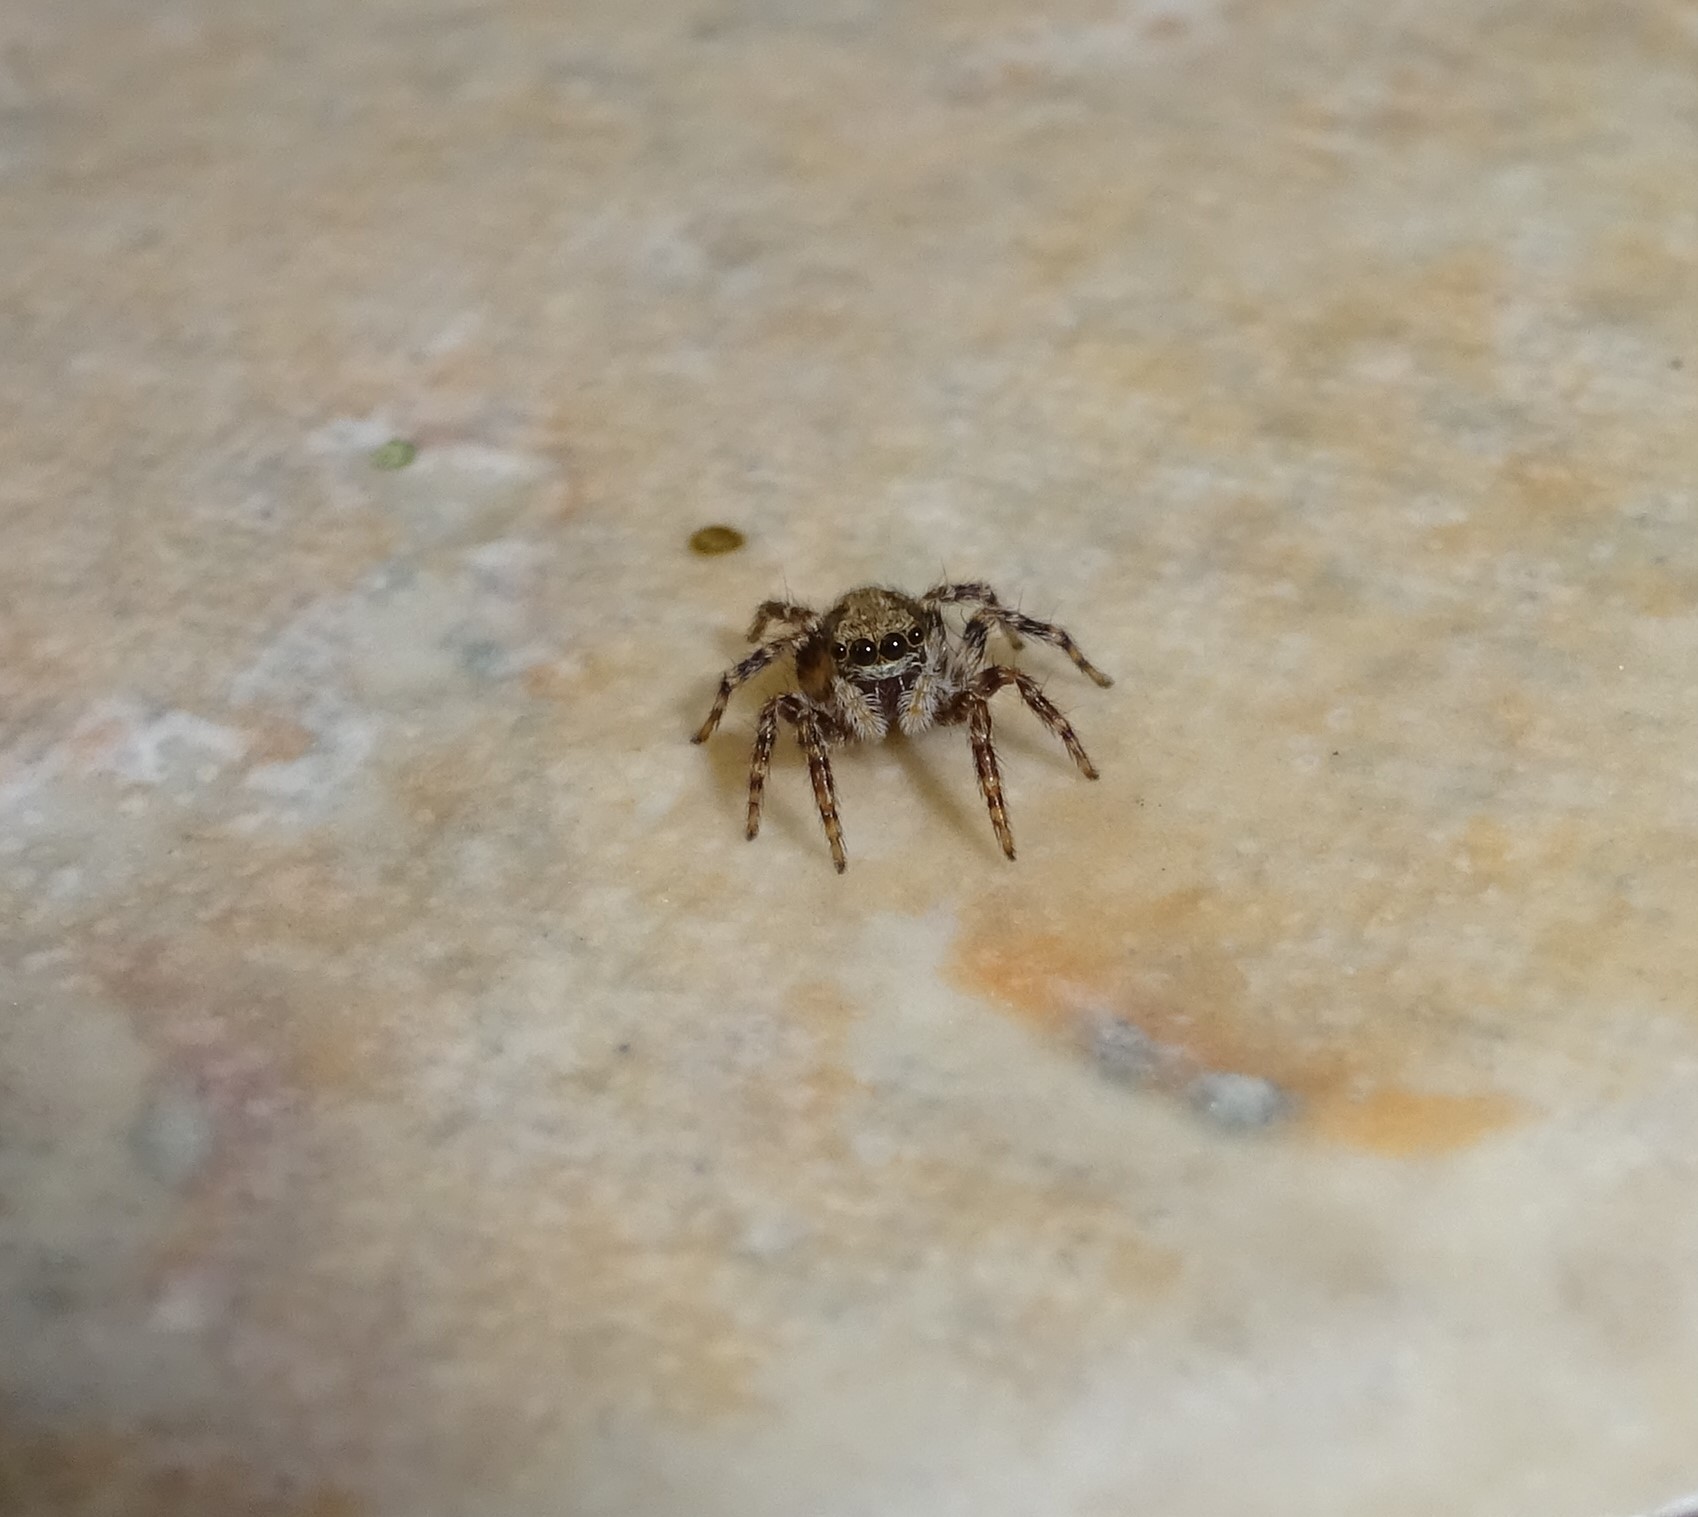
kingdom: Animalia
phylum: Arthropoda
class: Arachnida
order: Araneae
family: Salticidae
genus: Pseudeuophrys
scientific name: Pseudeuophrys lanigera
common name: Jumping spider
